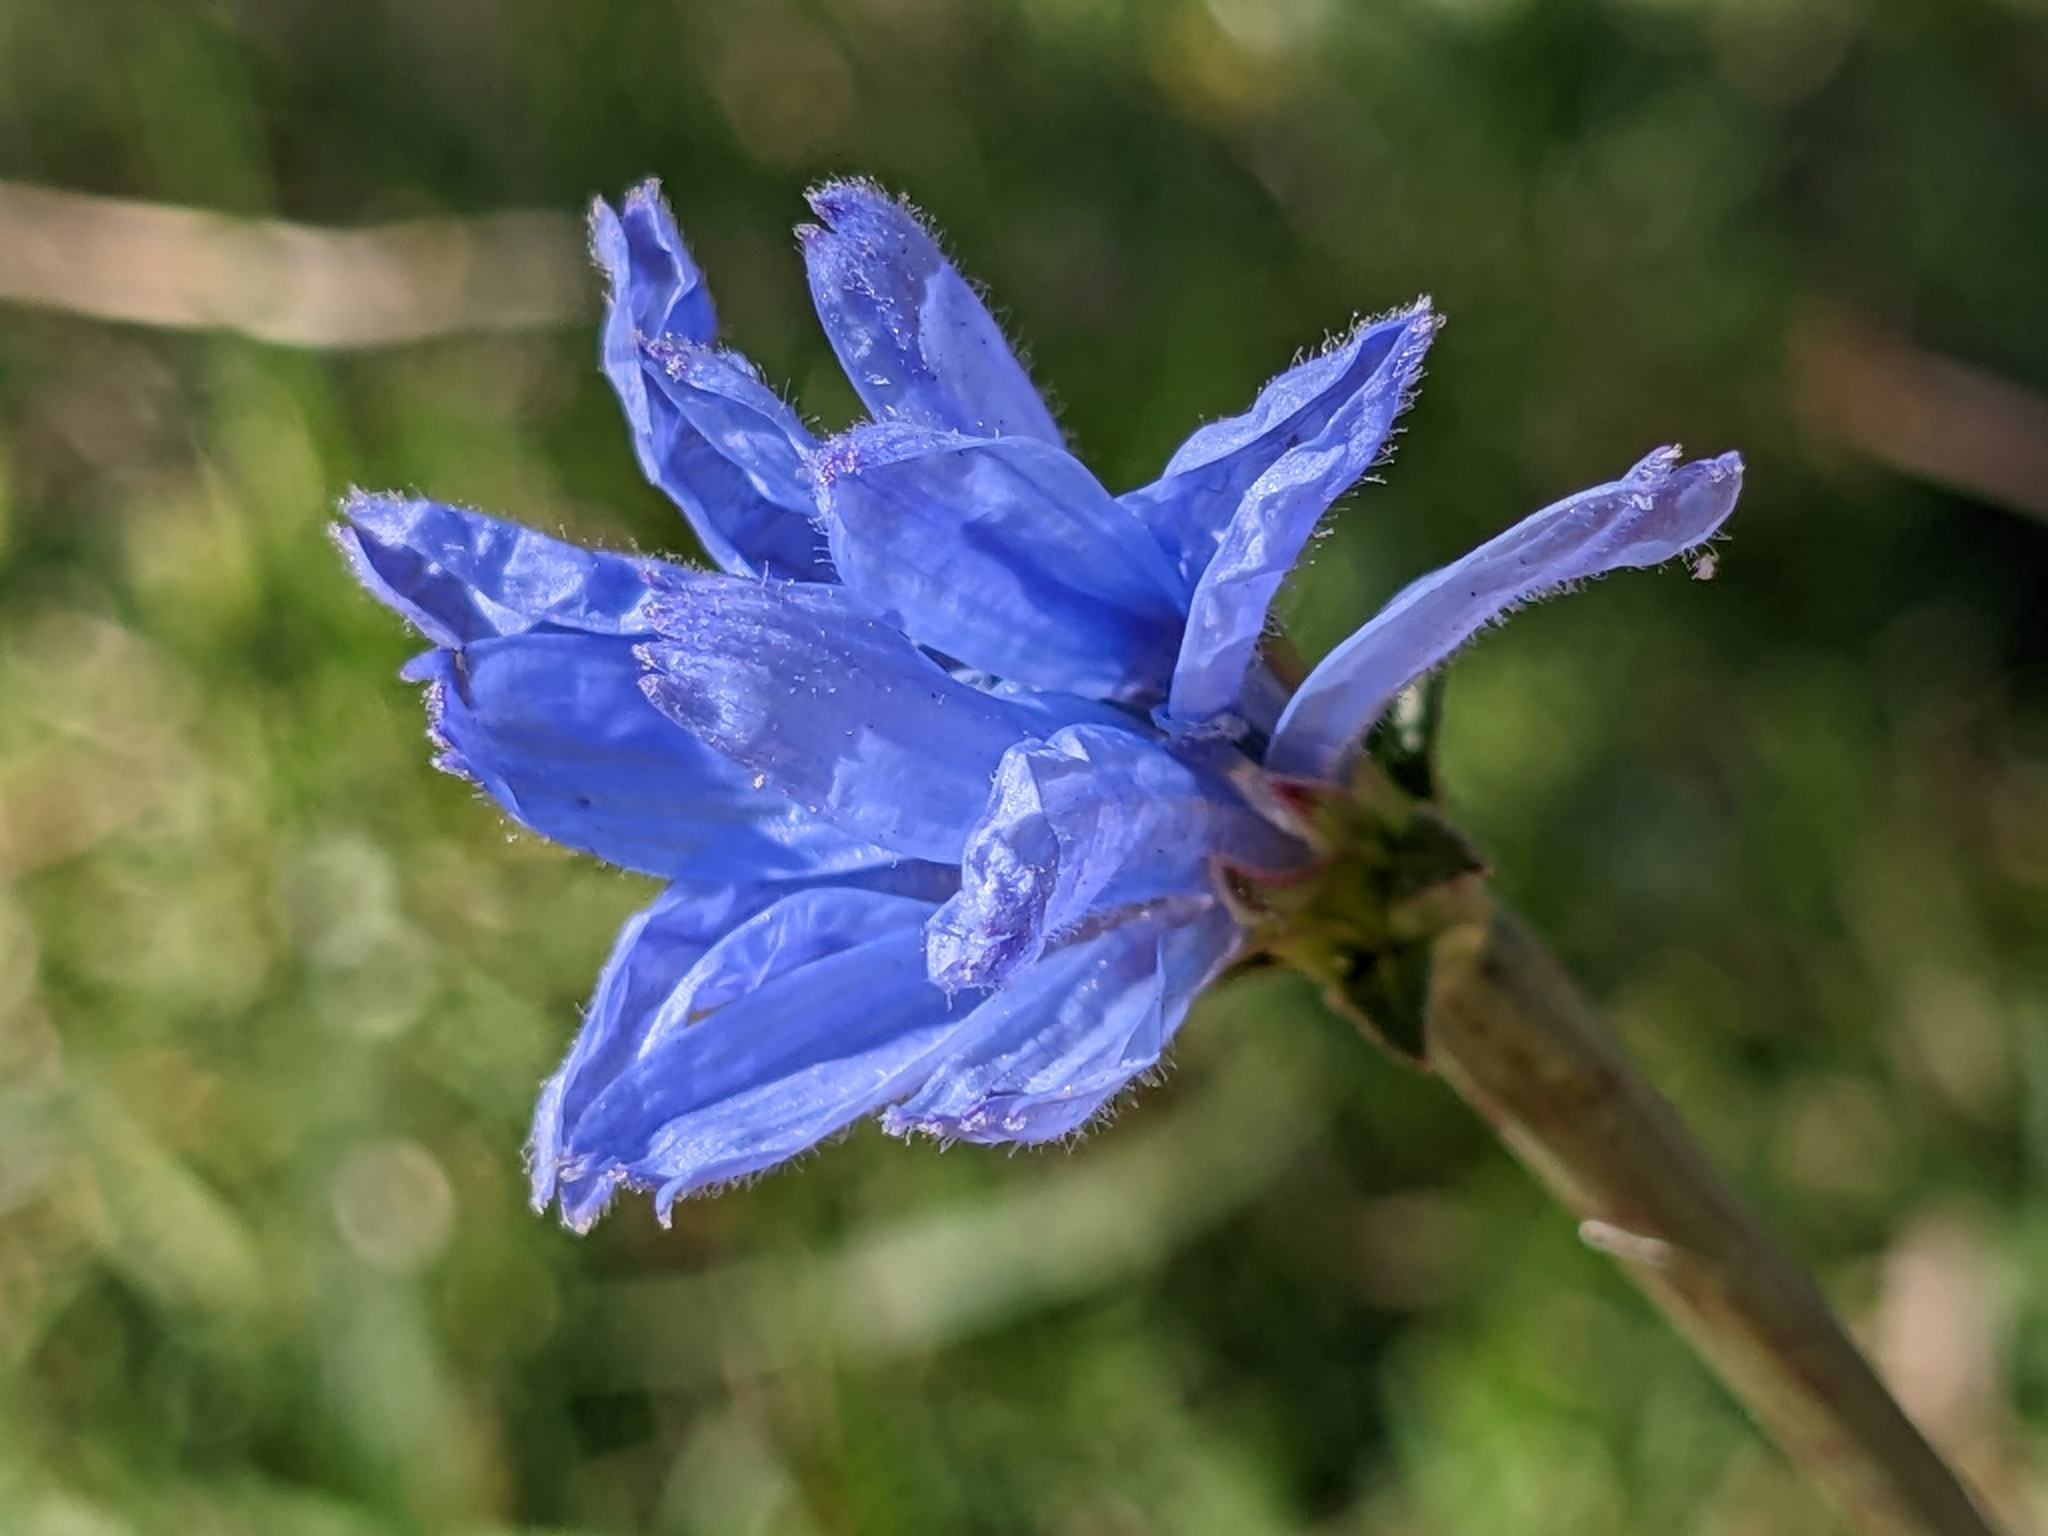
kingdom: Plantae
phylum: Tracheophyta
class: Magnoliopsida
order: Asterales
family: Asteraceae
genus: Cichorium
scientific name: Cichorium intybus
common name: Chicory
